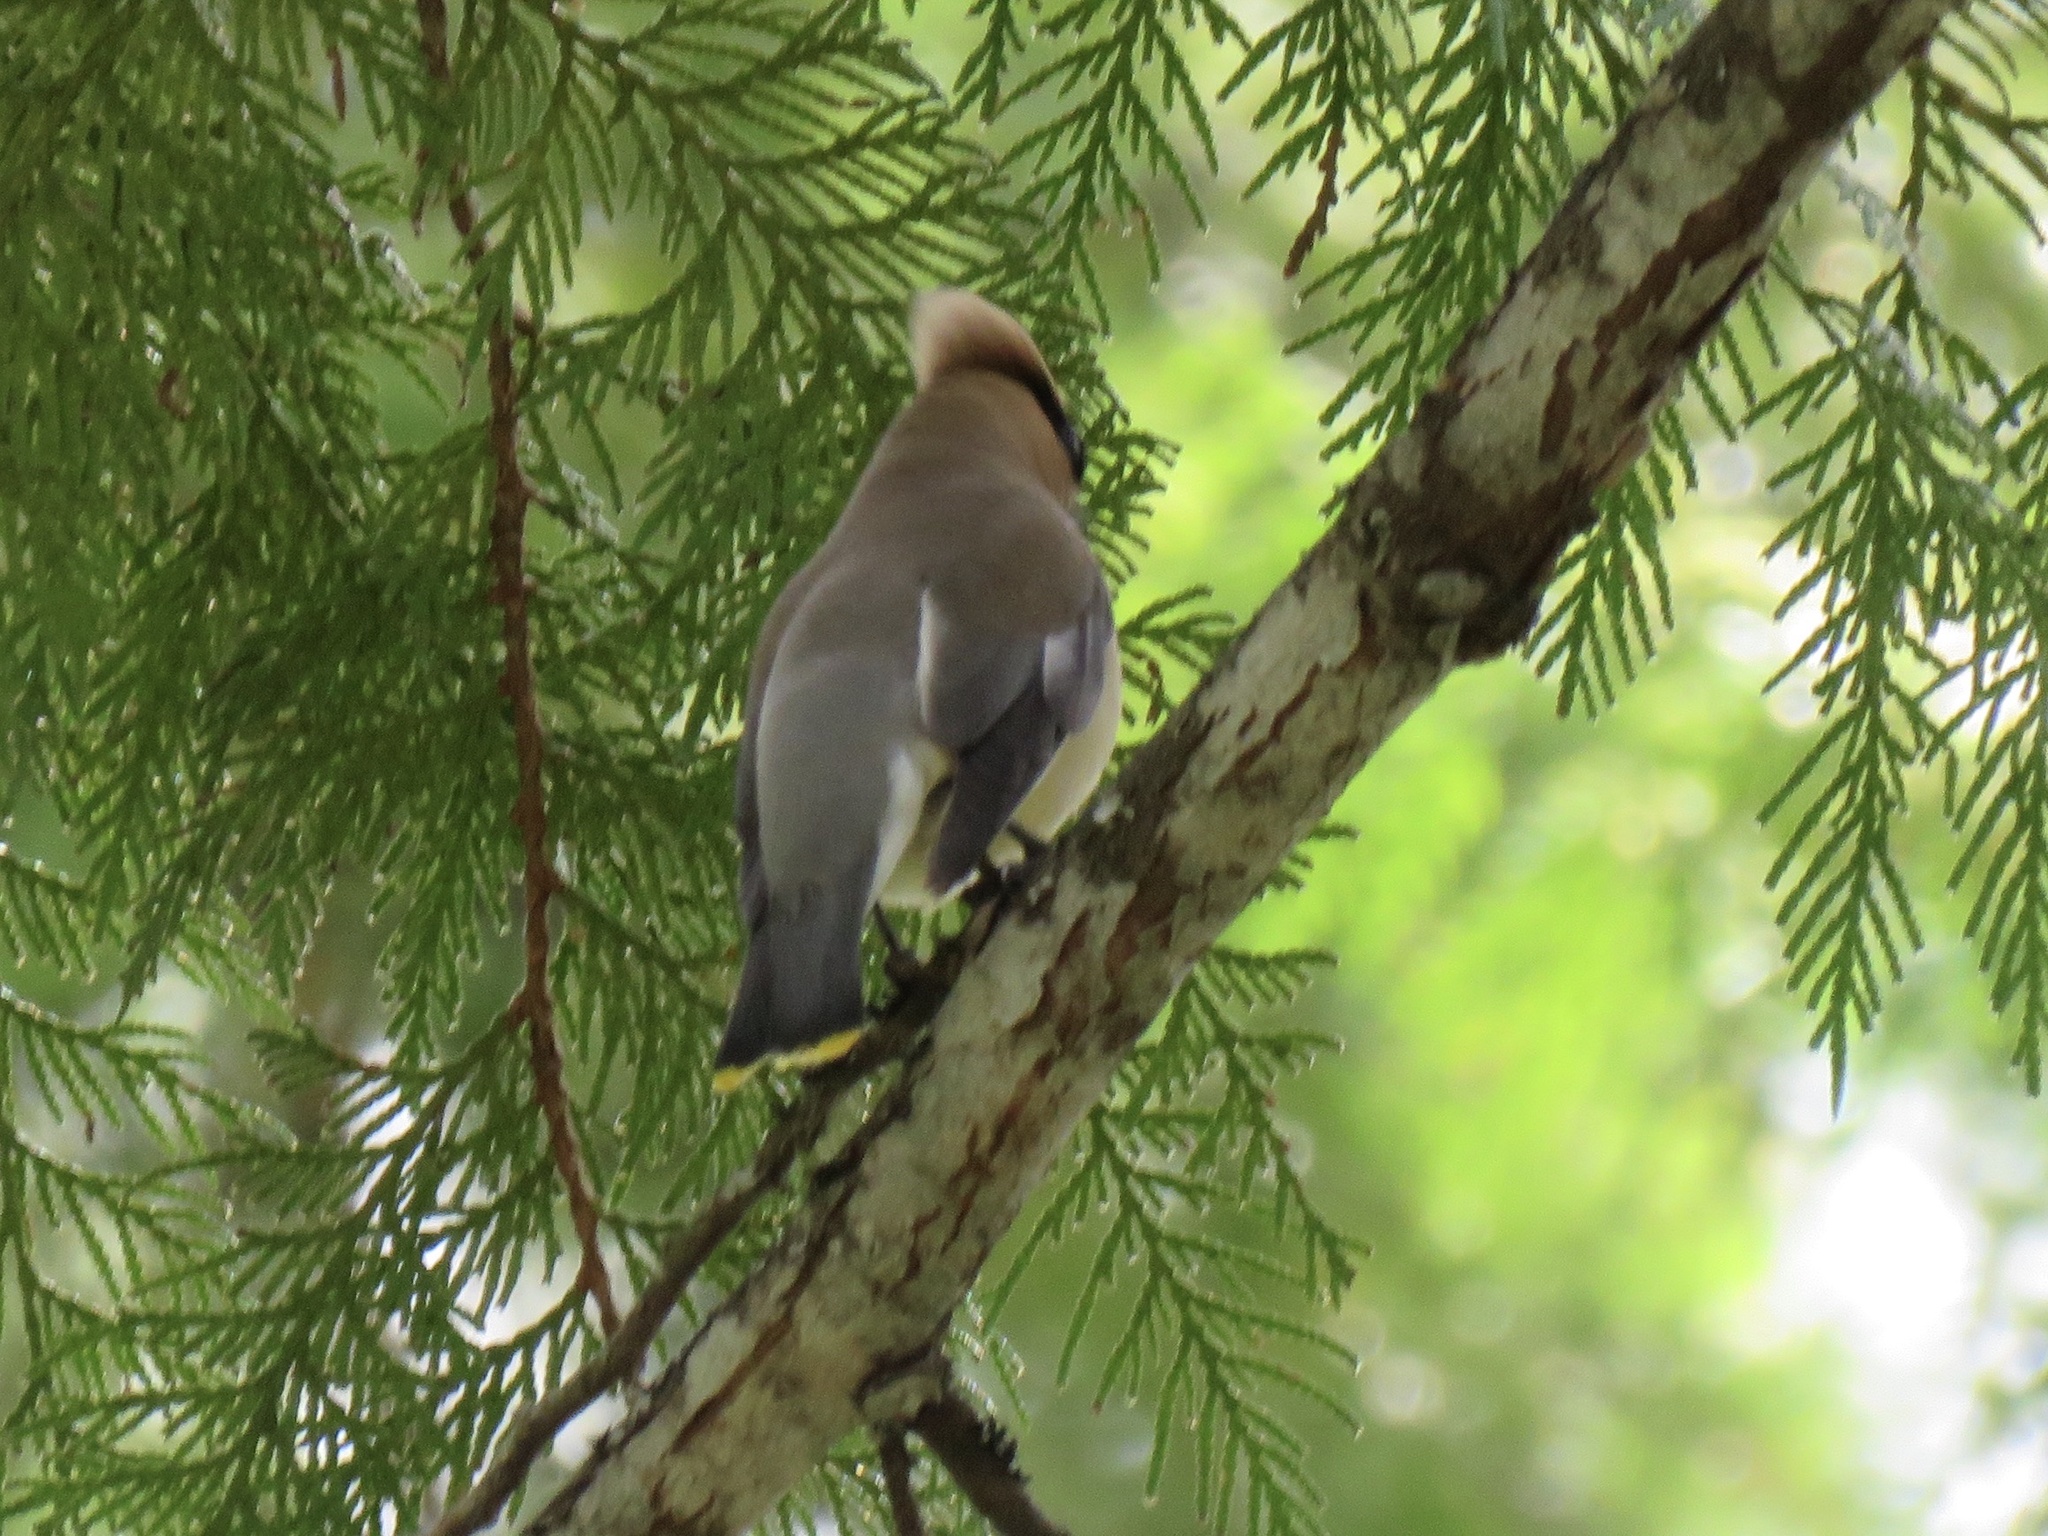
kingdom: Animalia
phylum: Chordata
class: Aves
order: Passeriformes
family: Bombycillidae
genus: Bombycilla
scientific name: Bombycilla cedrorum
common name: Cedar waxwing
